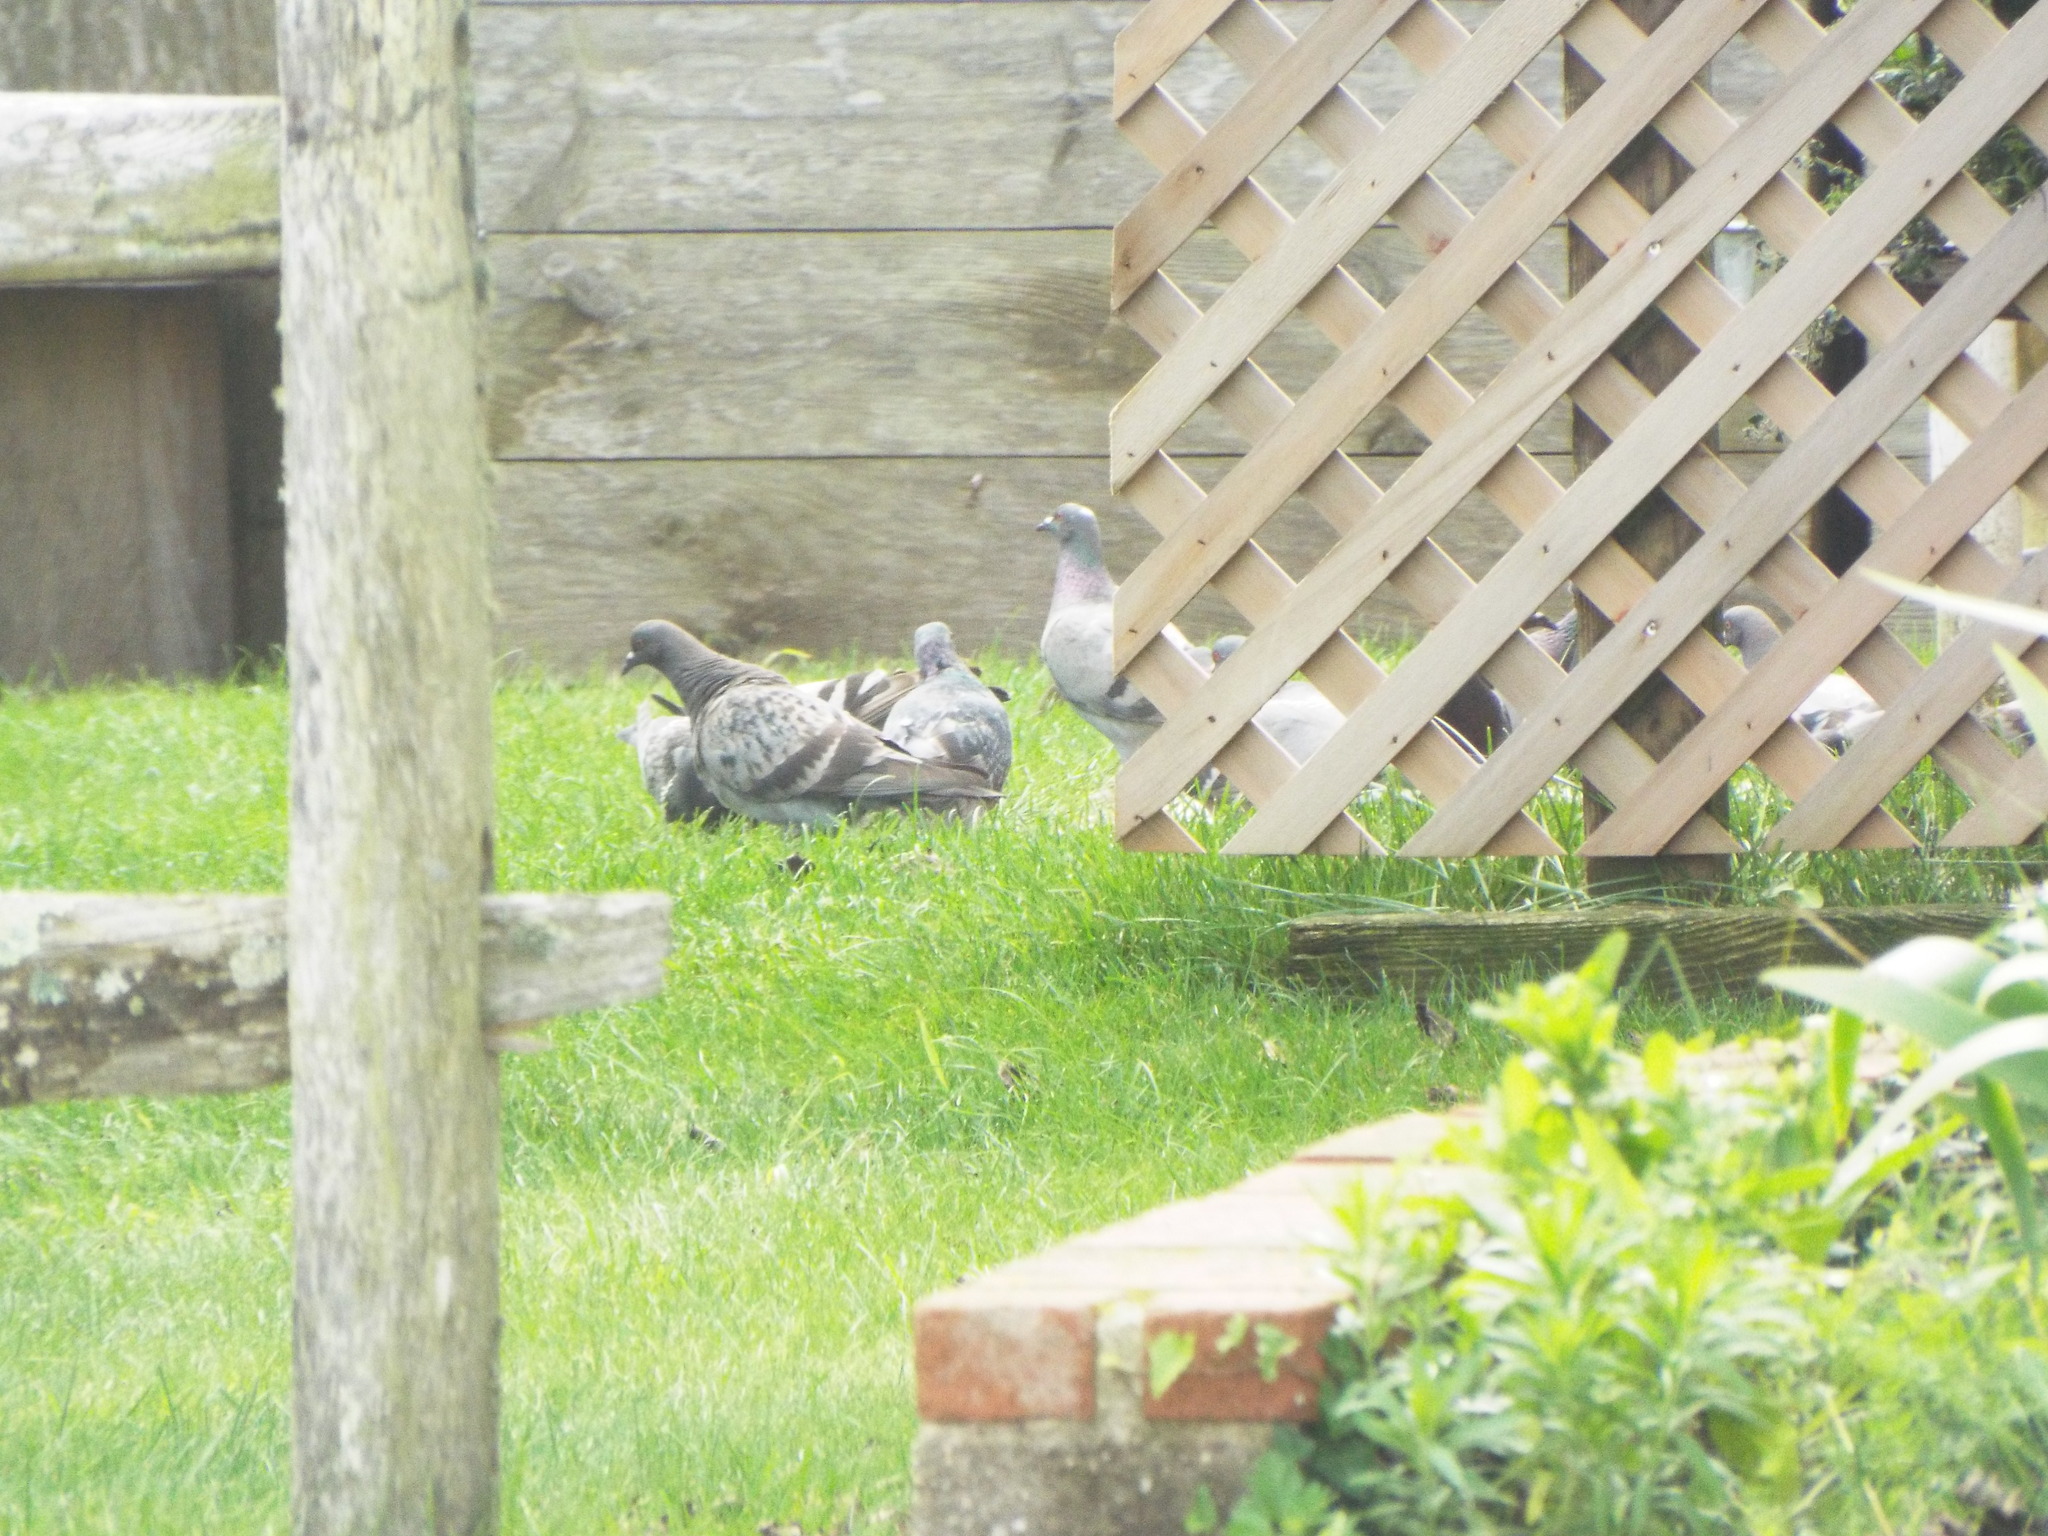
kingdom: Animalia
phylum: Chordata
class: Aves
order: Columbiformes
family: Columbidae
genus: Columba
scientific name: Columba livia
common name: Rock pigeon
